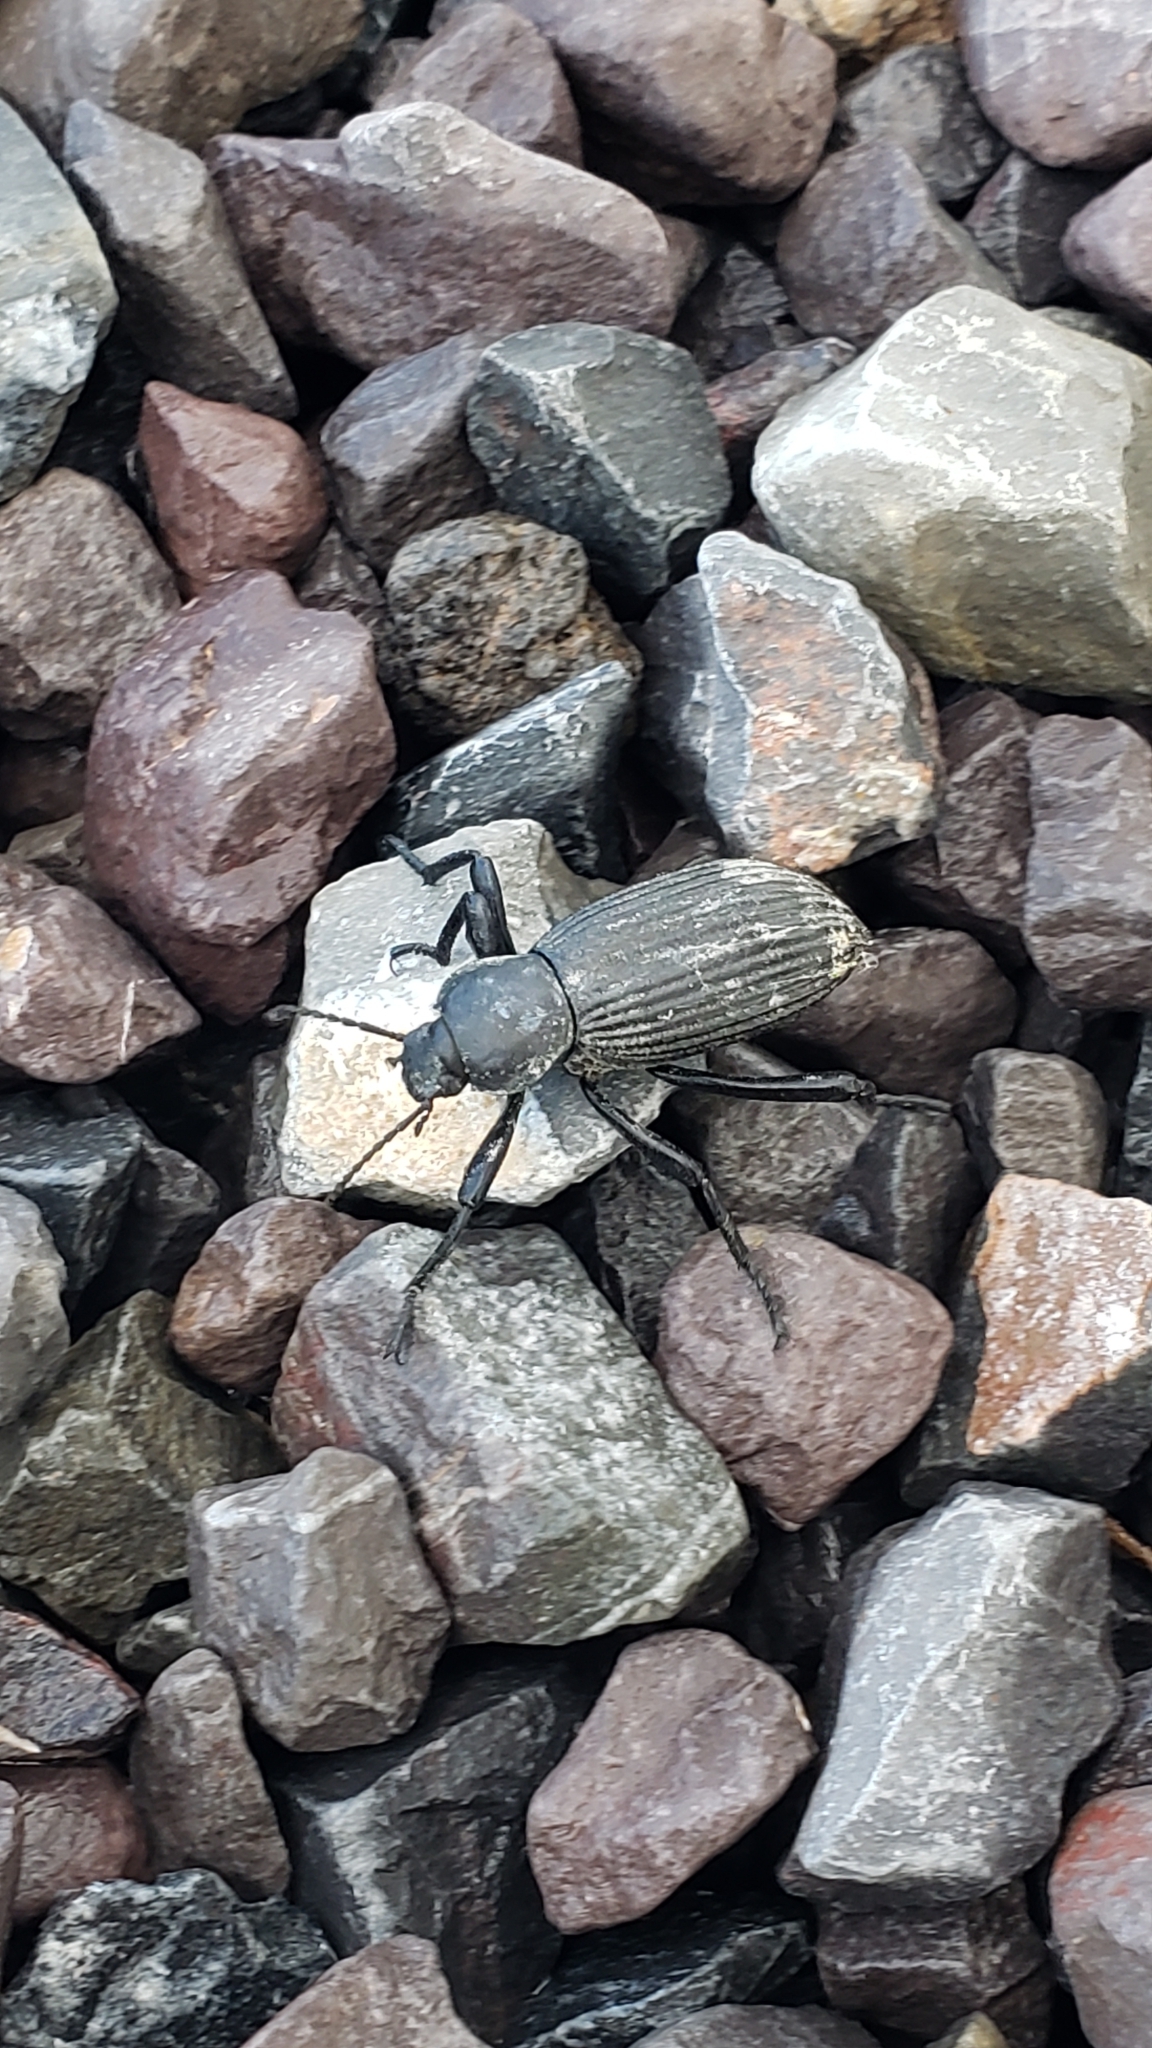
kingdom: Animalia
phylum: Arthropoda
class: Insecta
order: Coleoptera
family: Tenebrionidae
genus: Eleodes
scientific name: Eleodes hispilabris
